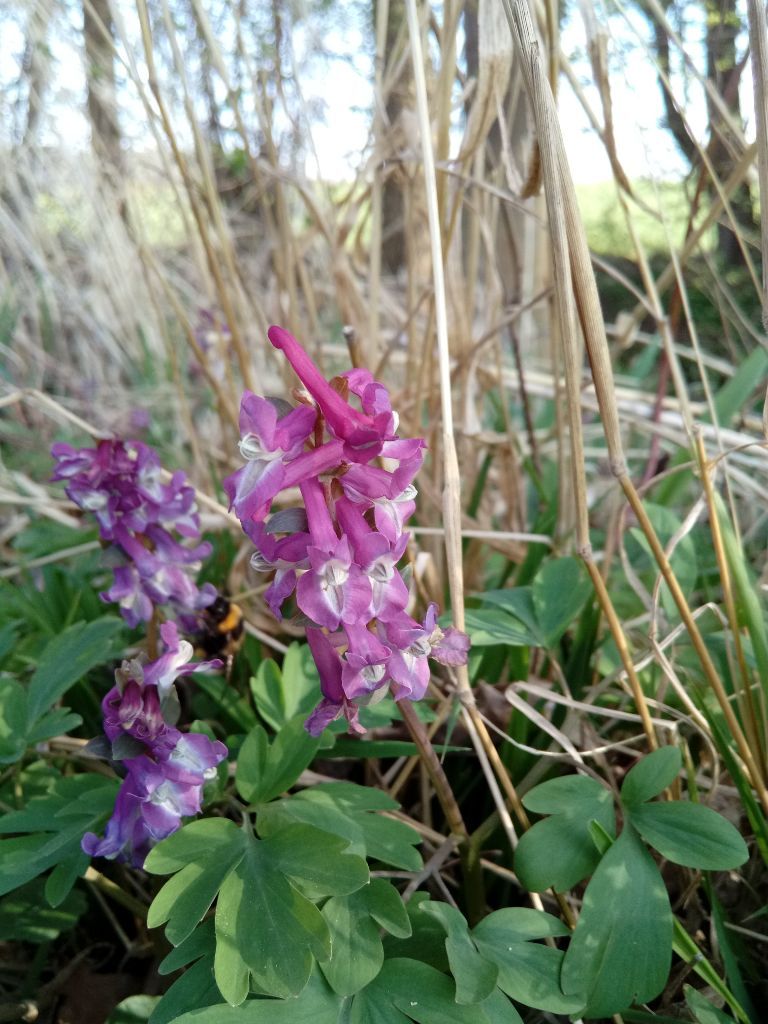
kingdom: Plantae
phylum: Tracheophyta
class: Magnoliopsida
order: Ranunculales
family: Papaveraceae
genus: Corydalis
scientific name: Corydalis cava
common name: Hollowroot
